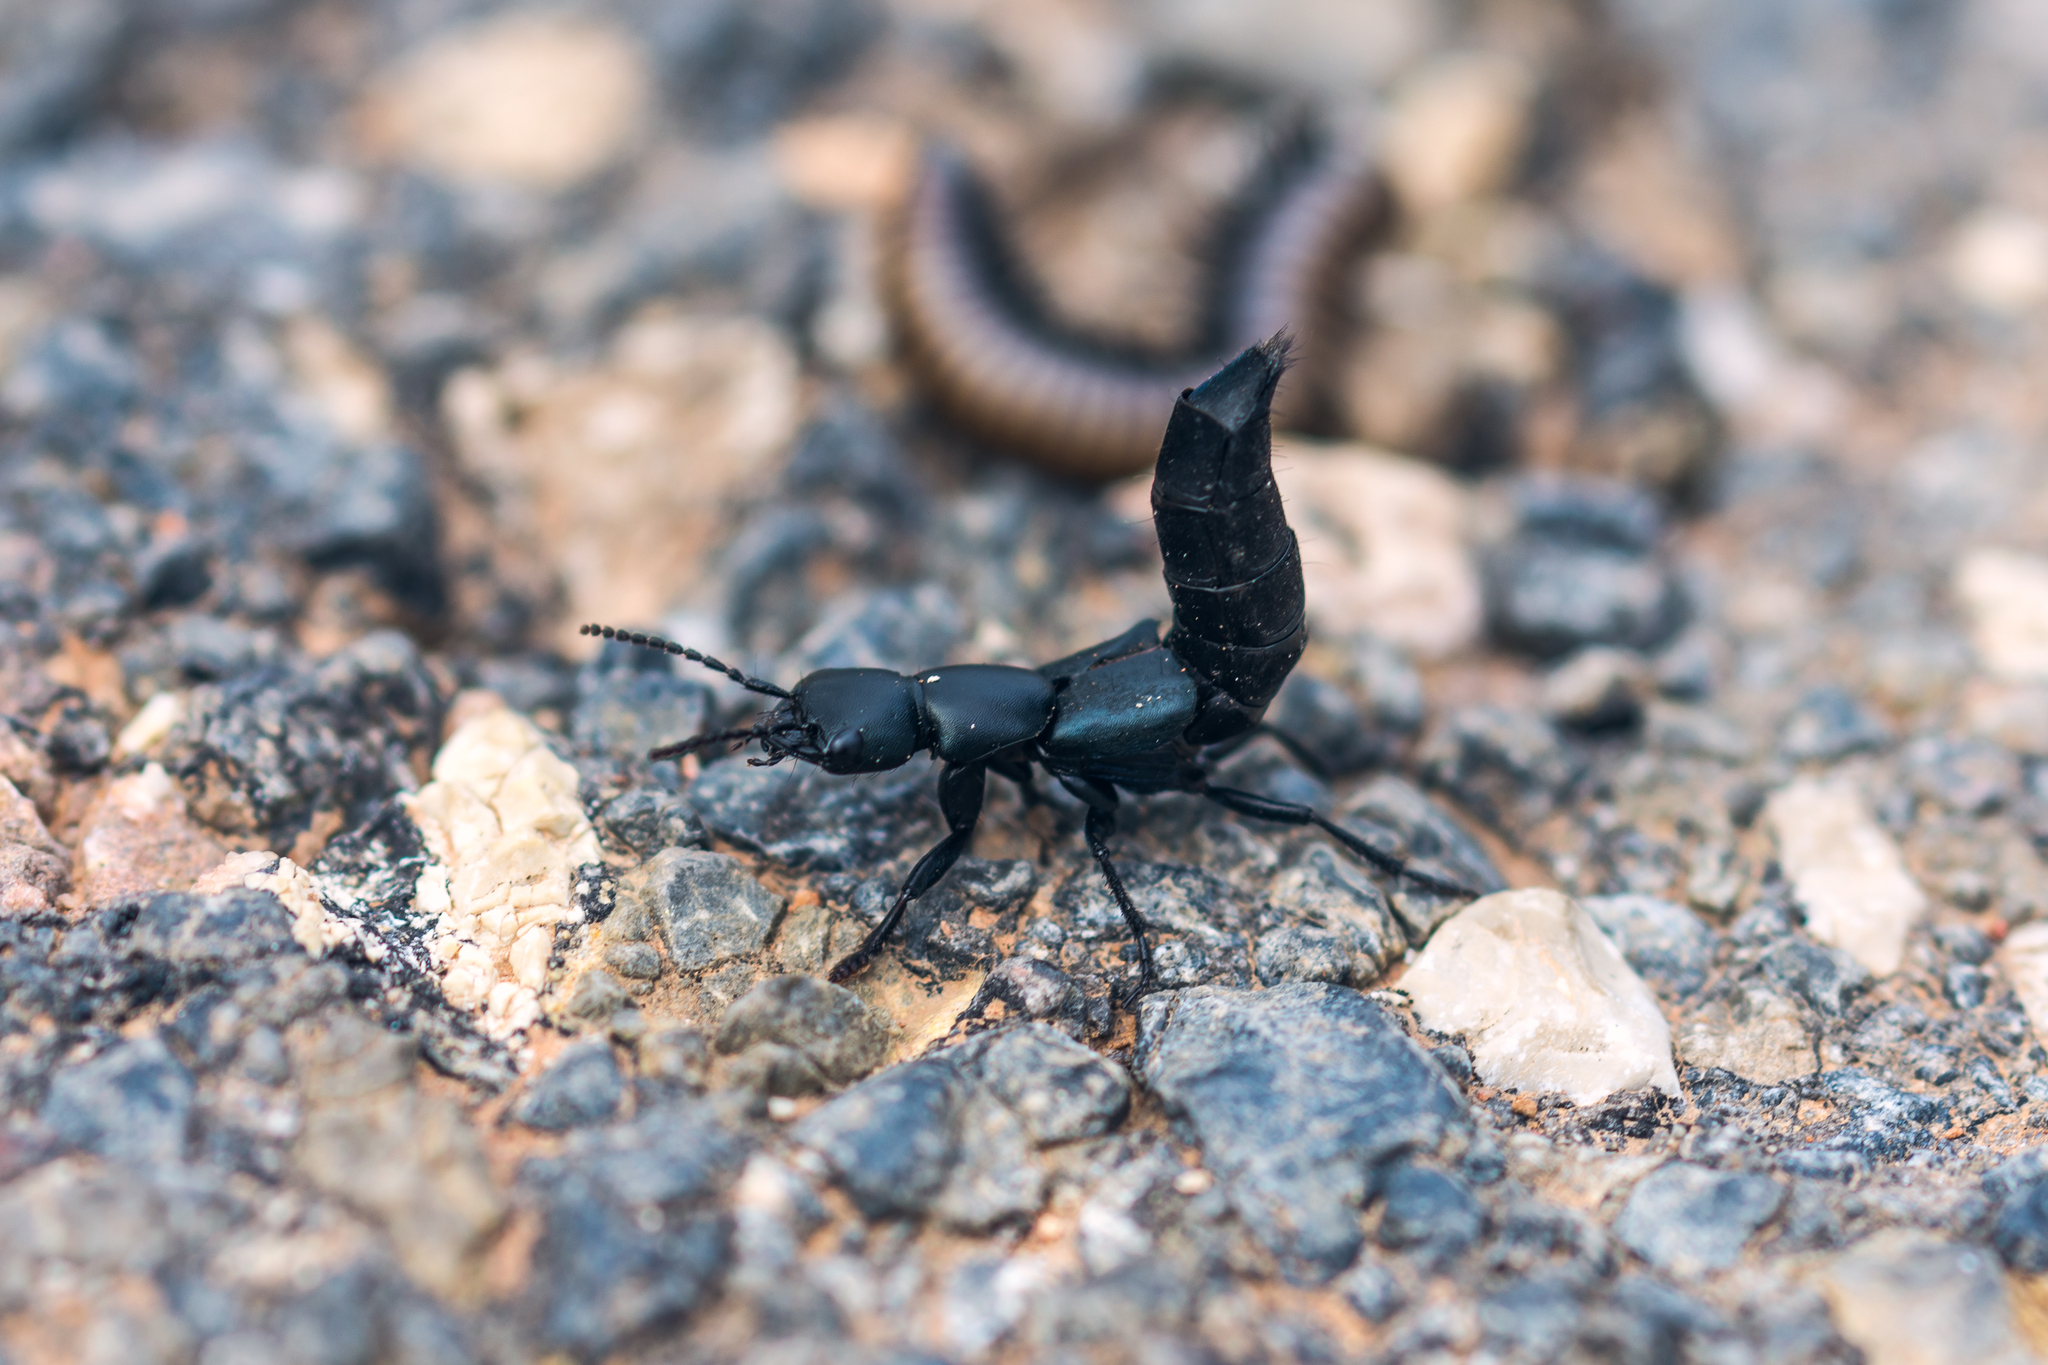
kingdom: Animalia
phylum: Arthropoda
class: Insecta
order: Coleoptera
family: Staphylinidae
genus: Ocypus
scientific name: Ocypus ophthalmicus
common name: Blue rove-beetle
